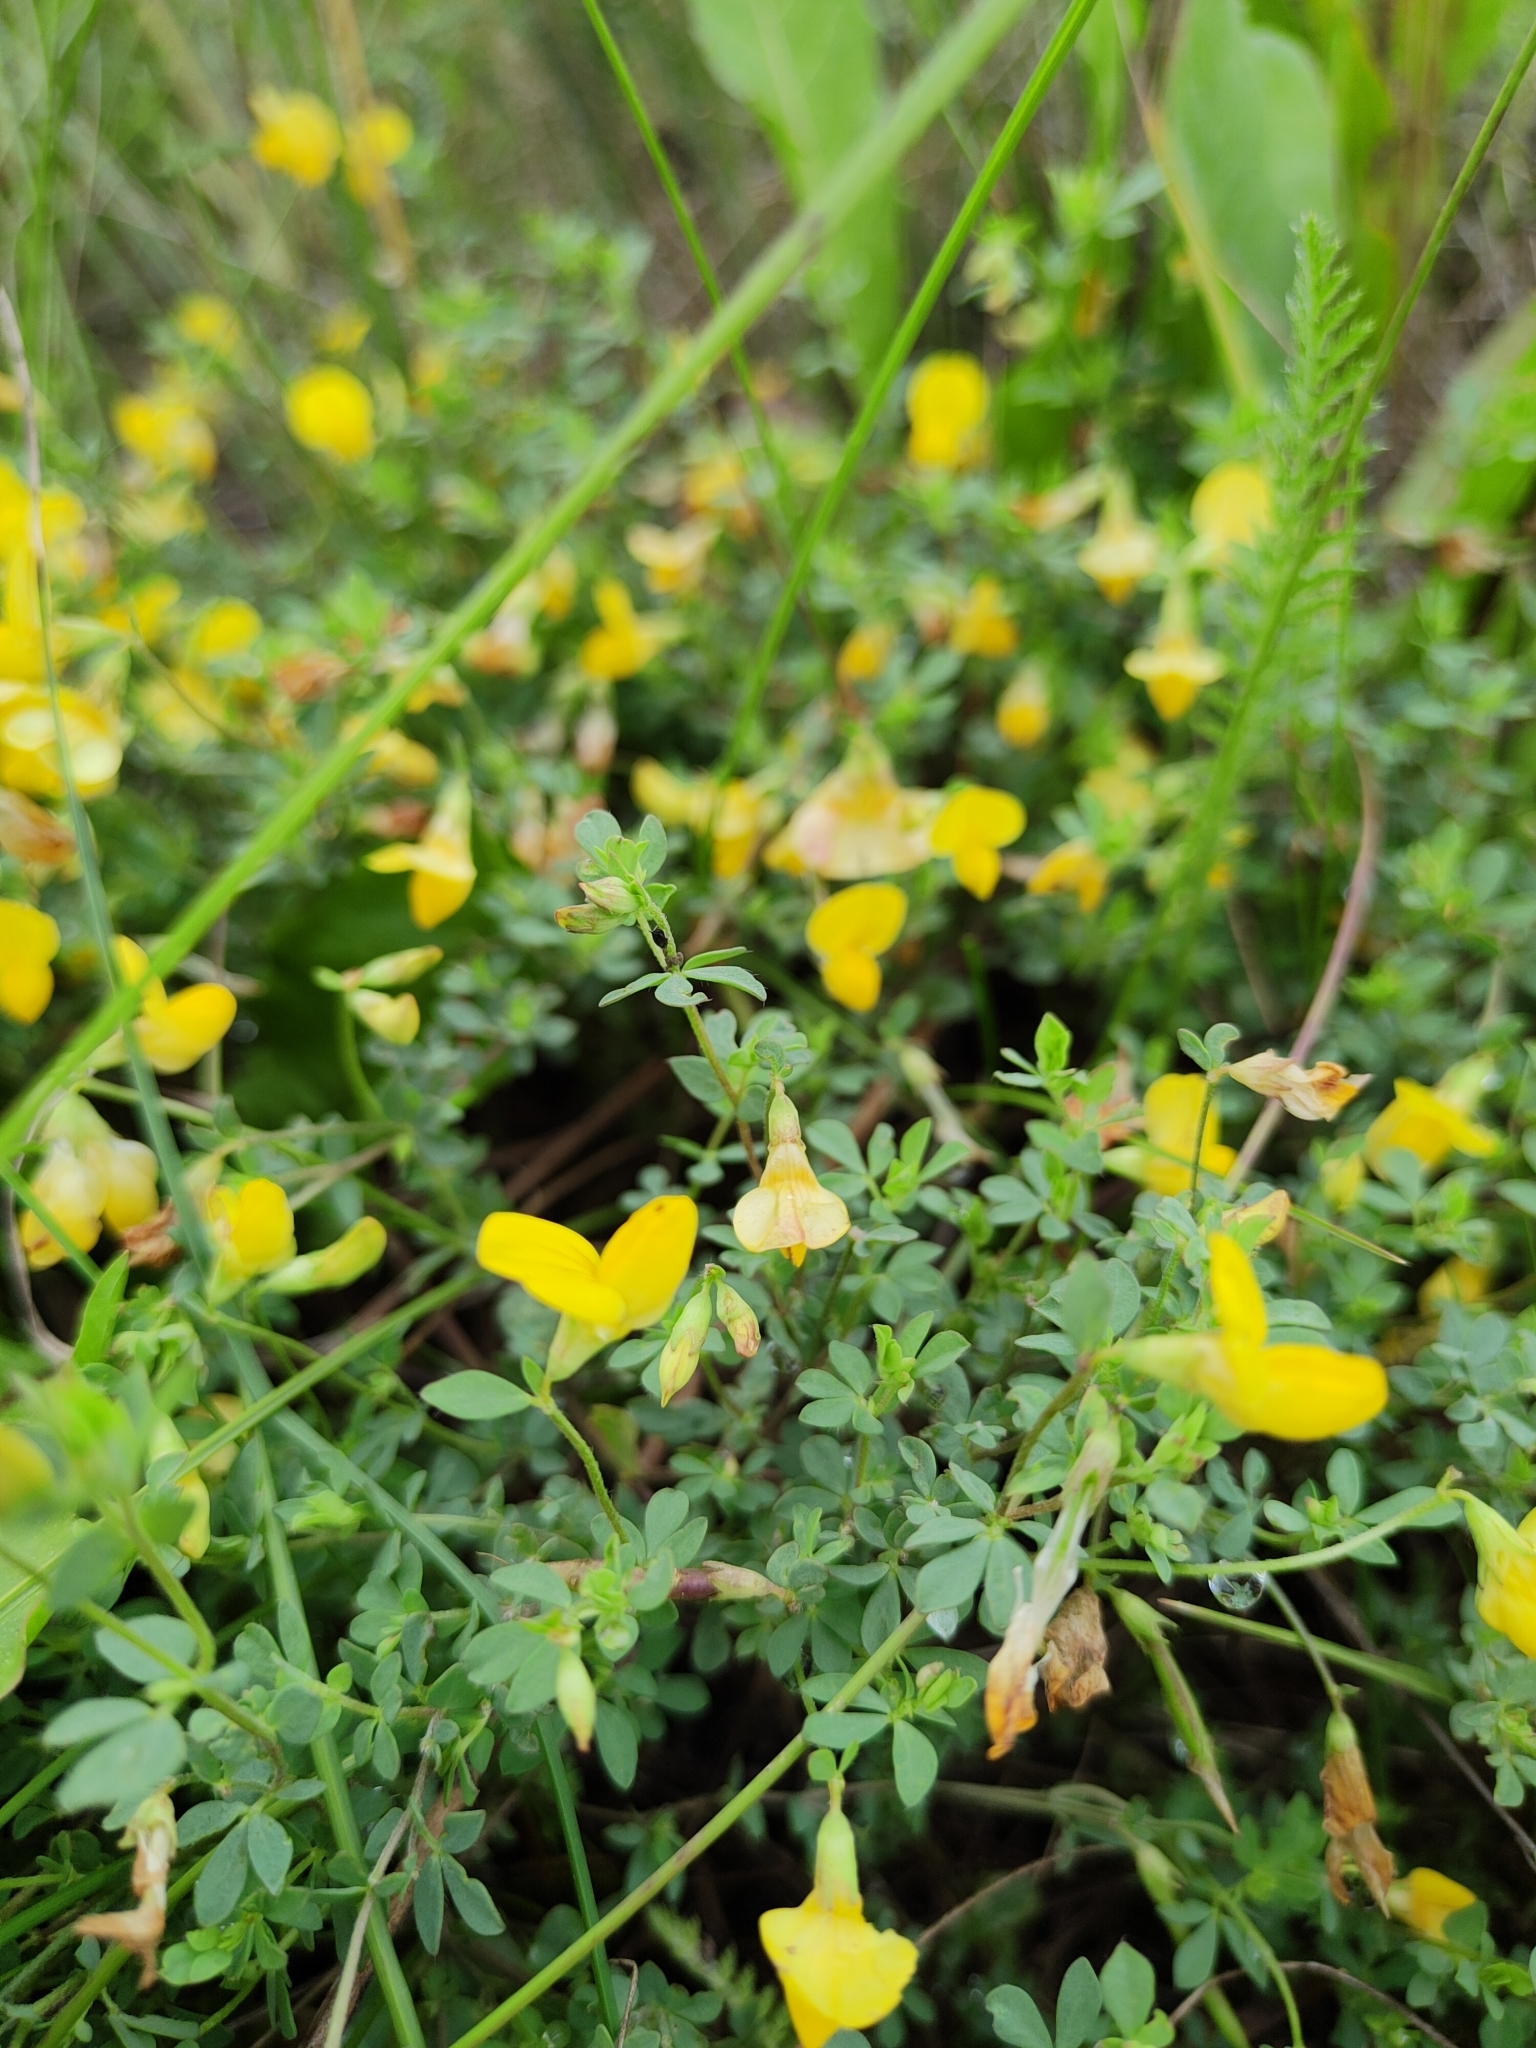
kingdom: Plantae
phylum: Tracheophyta
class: Magnoliopsida
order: Fabales
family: Fabaceae
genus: Lotus
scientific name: Lotus ucrainicus
